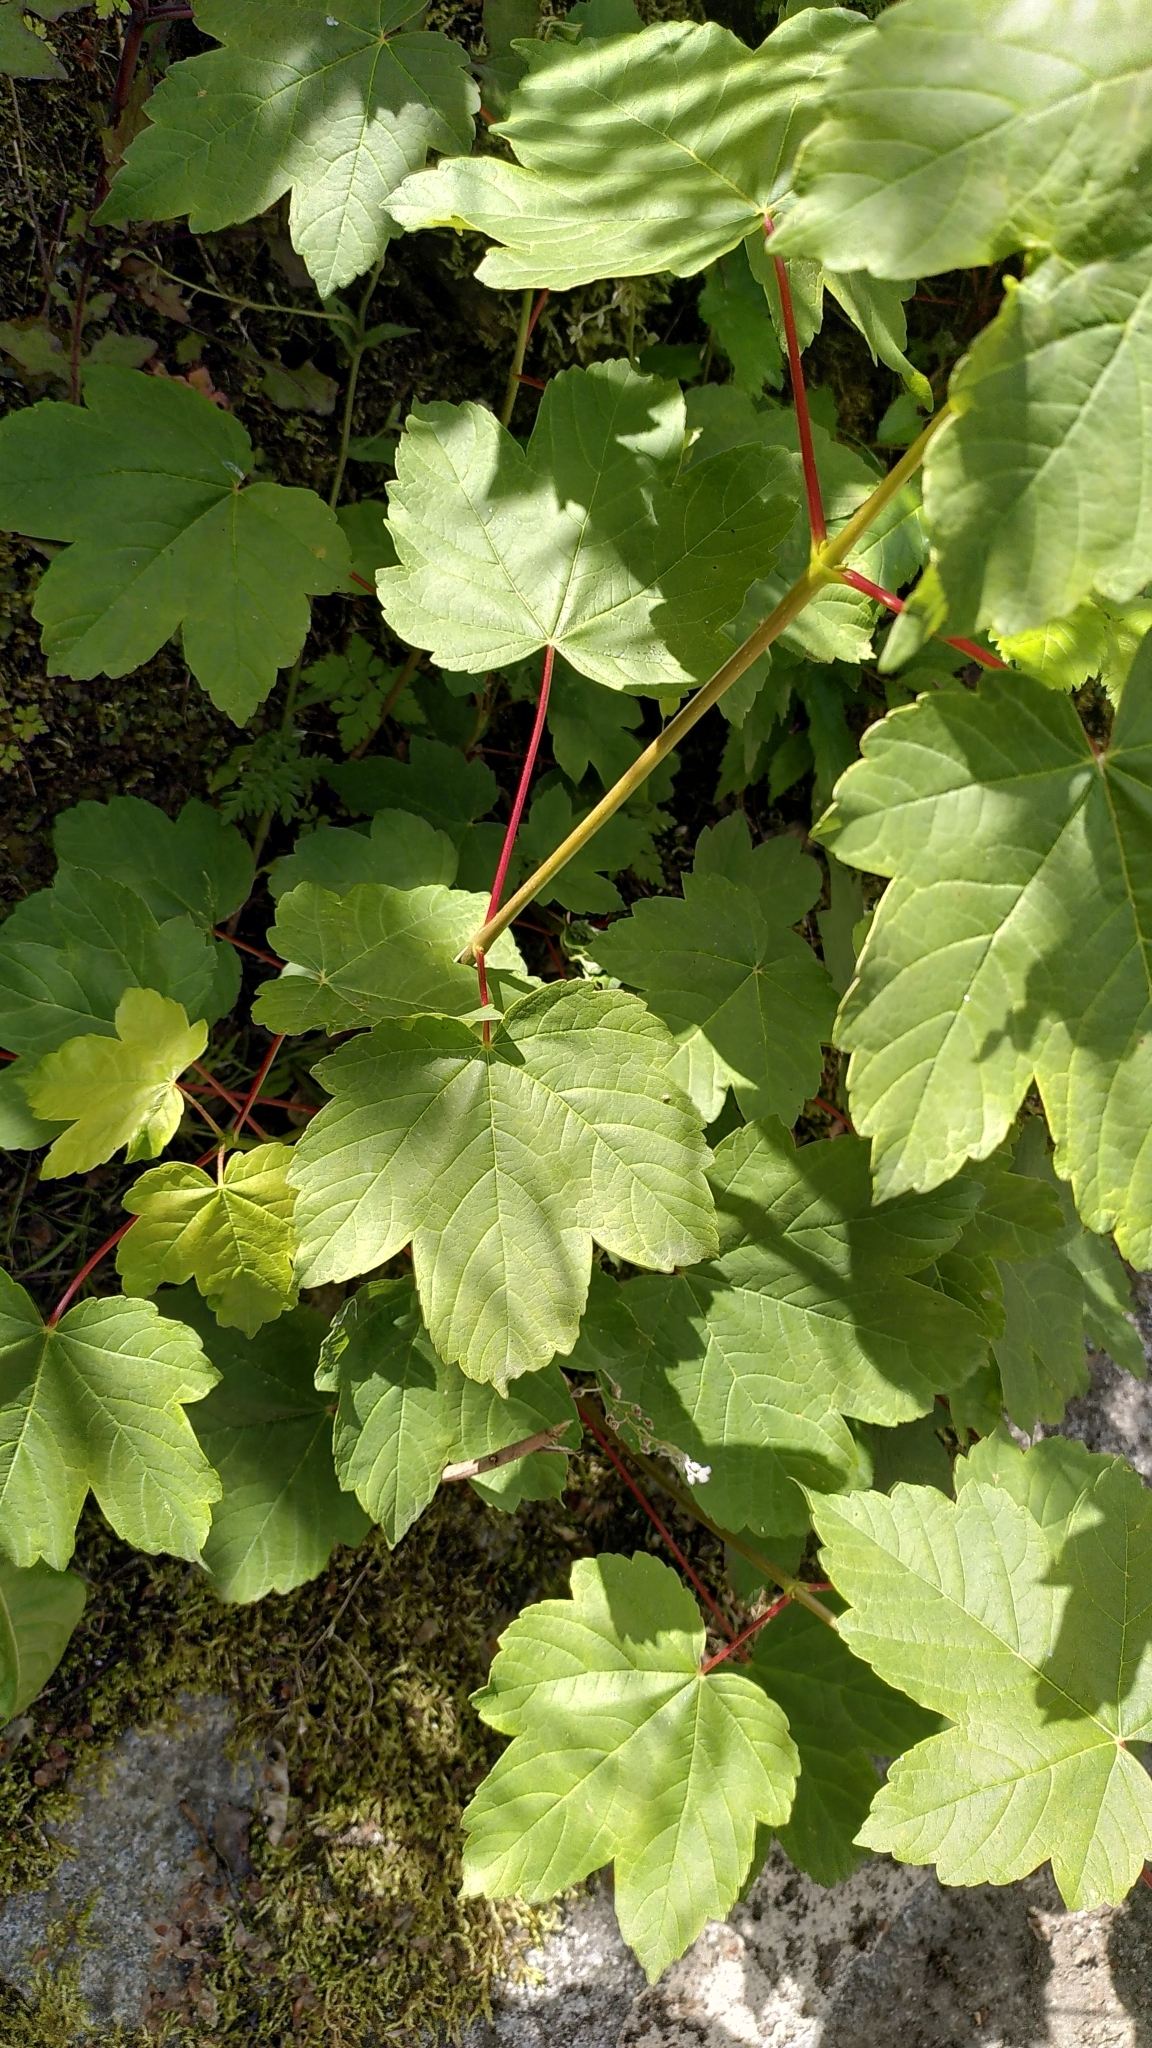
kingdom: Plantae
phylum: Tracheophyta
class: Magnoliopsida
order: Sapindales
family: Sapindaceae
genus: Acer
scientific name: Acer pseudoplatanus
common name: Sycamore
